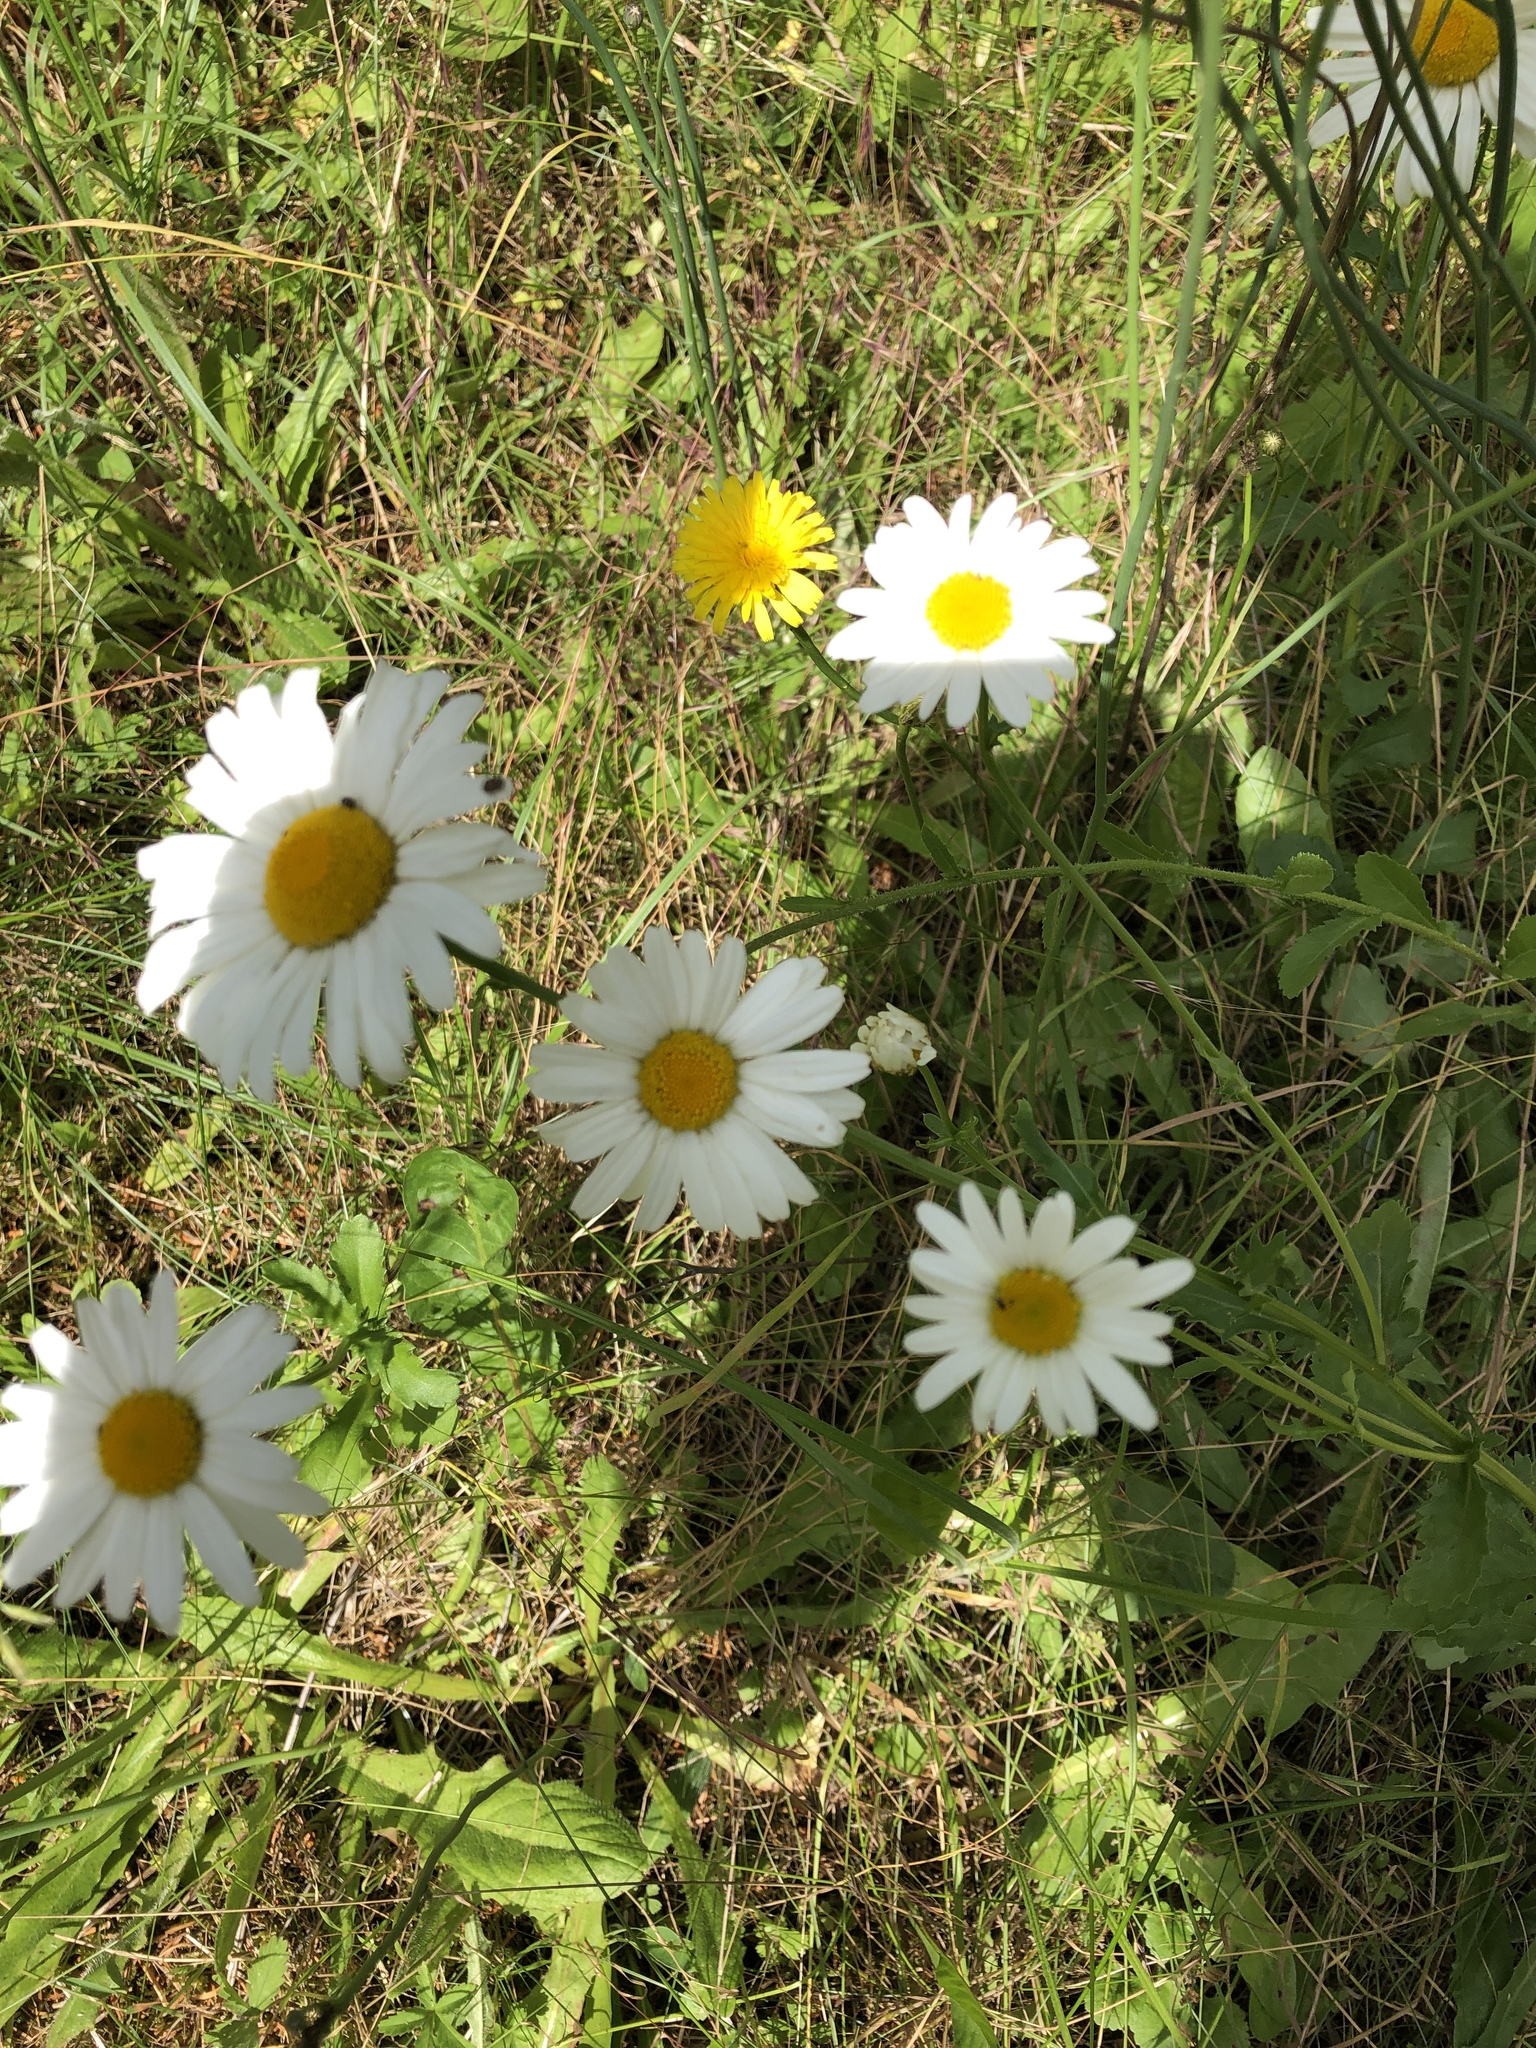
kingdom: Plantae
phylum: Tracheophyta
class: Magnoliopsida
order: Asterales
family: Asteraceae
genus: Leucanthemum
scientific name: Leucanthemum vulgare
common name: Oxeye daisy
